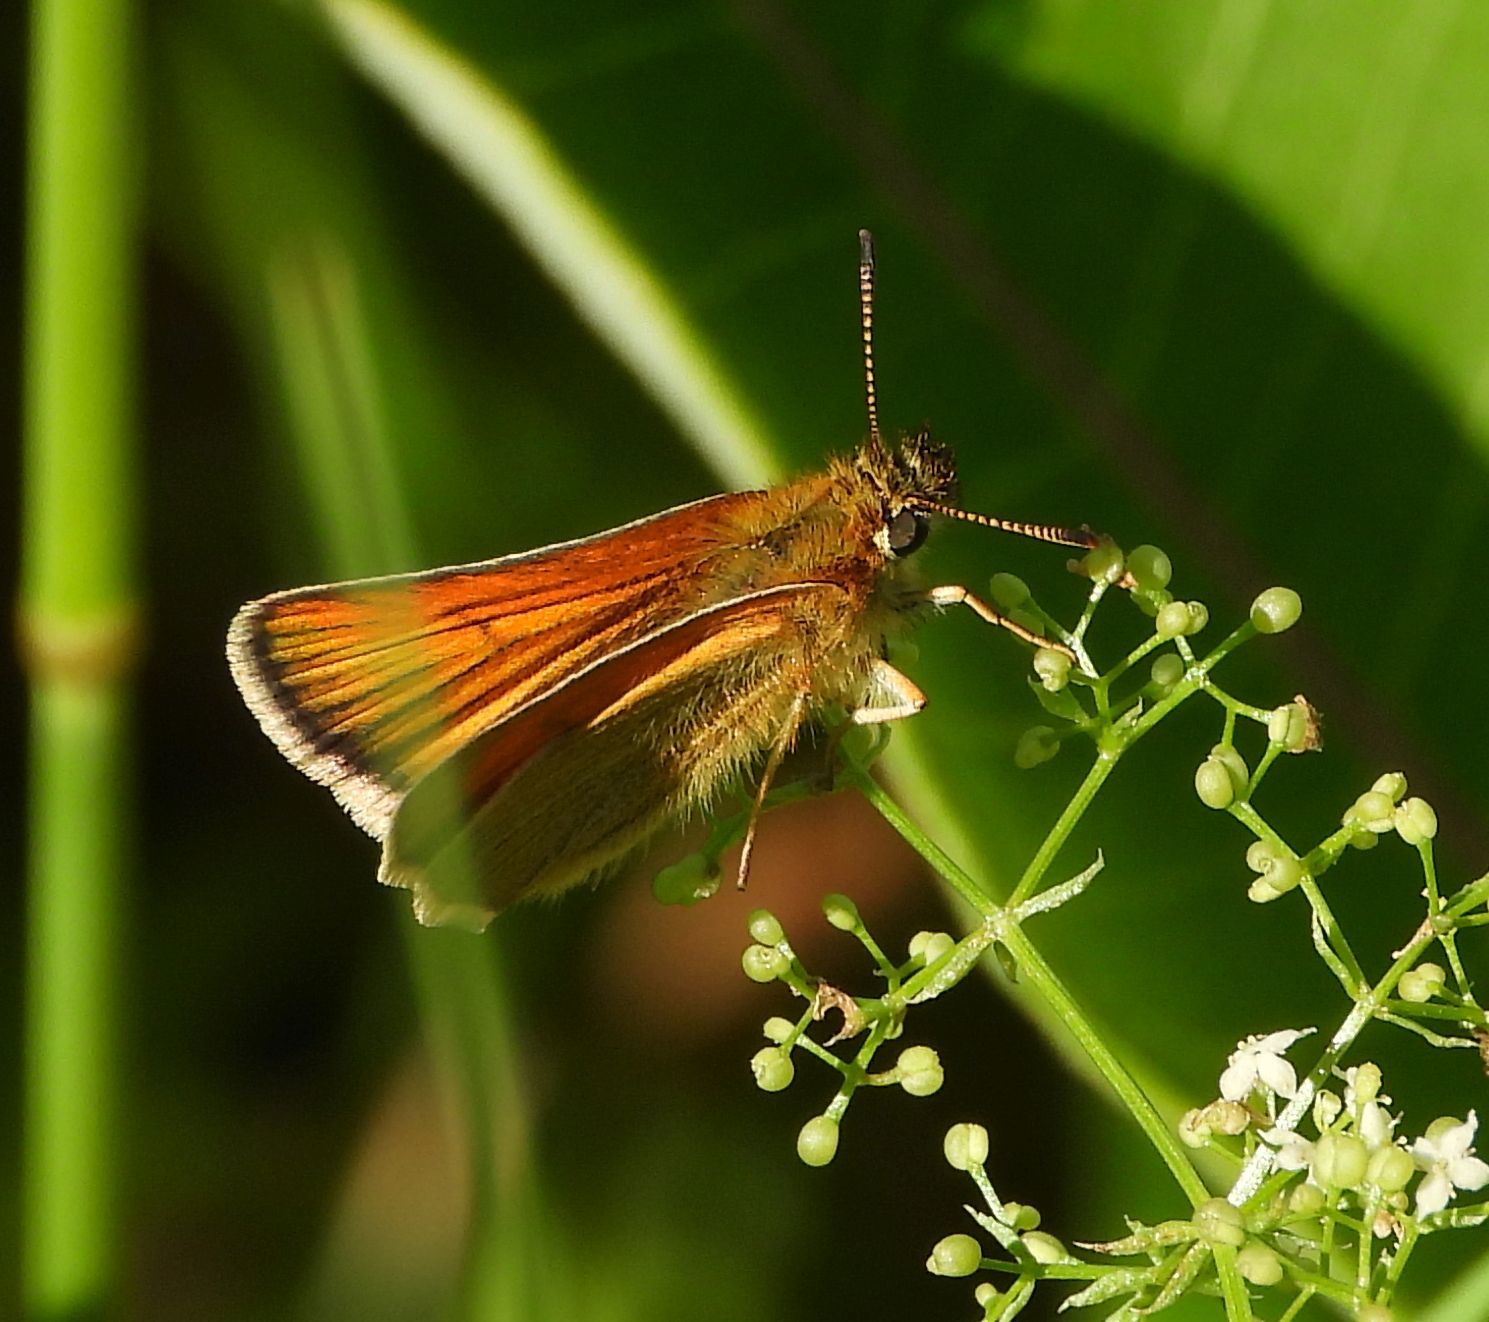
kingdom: Animalia
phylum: Arthropoda
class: Insecta
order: Lepidoptera
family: Hesperiidae
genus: Thymelicus
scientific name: Thymelicus lineola
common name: Essex skipper
